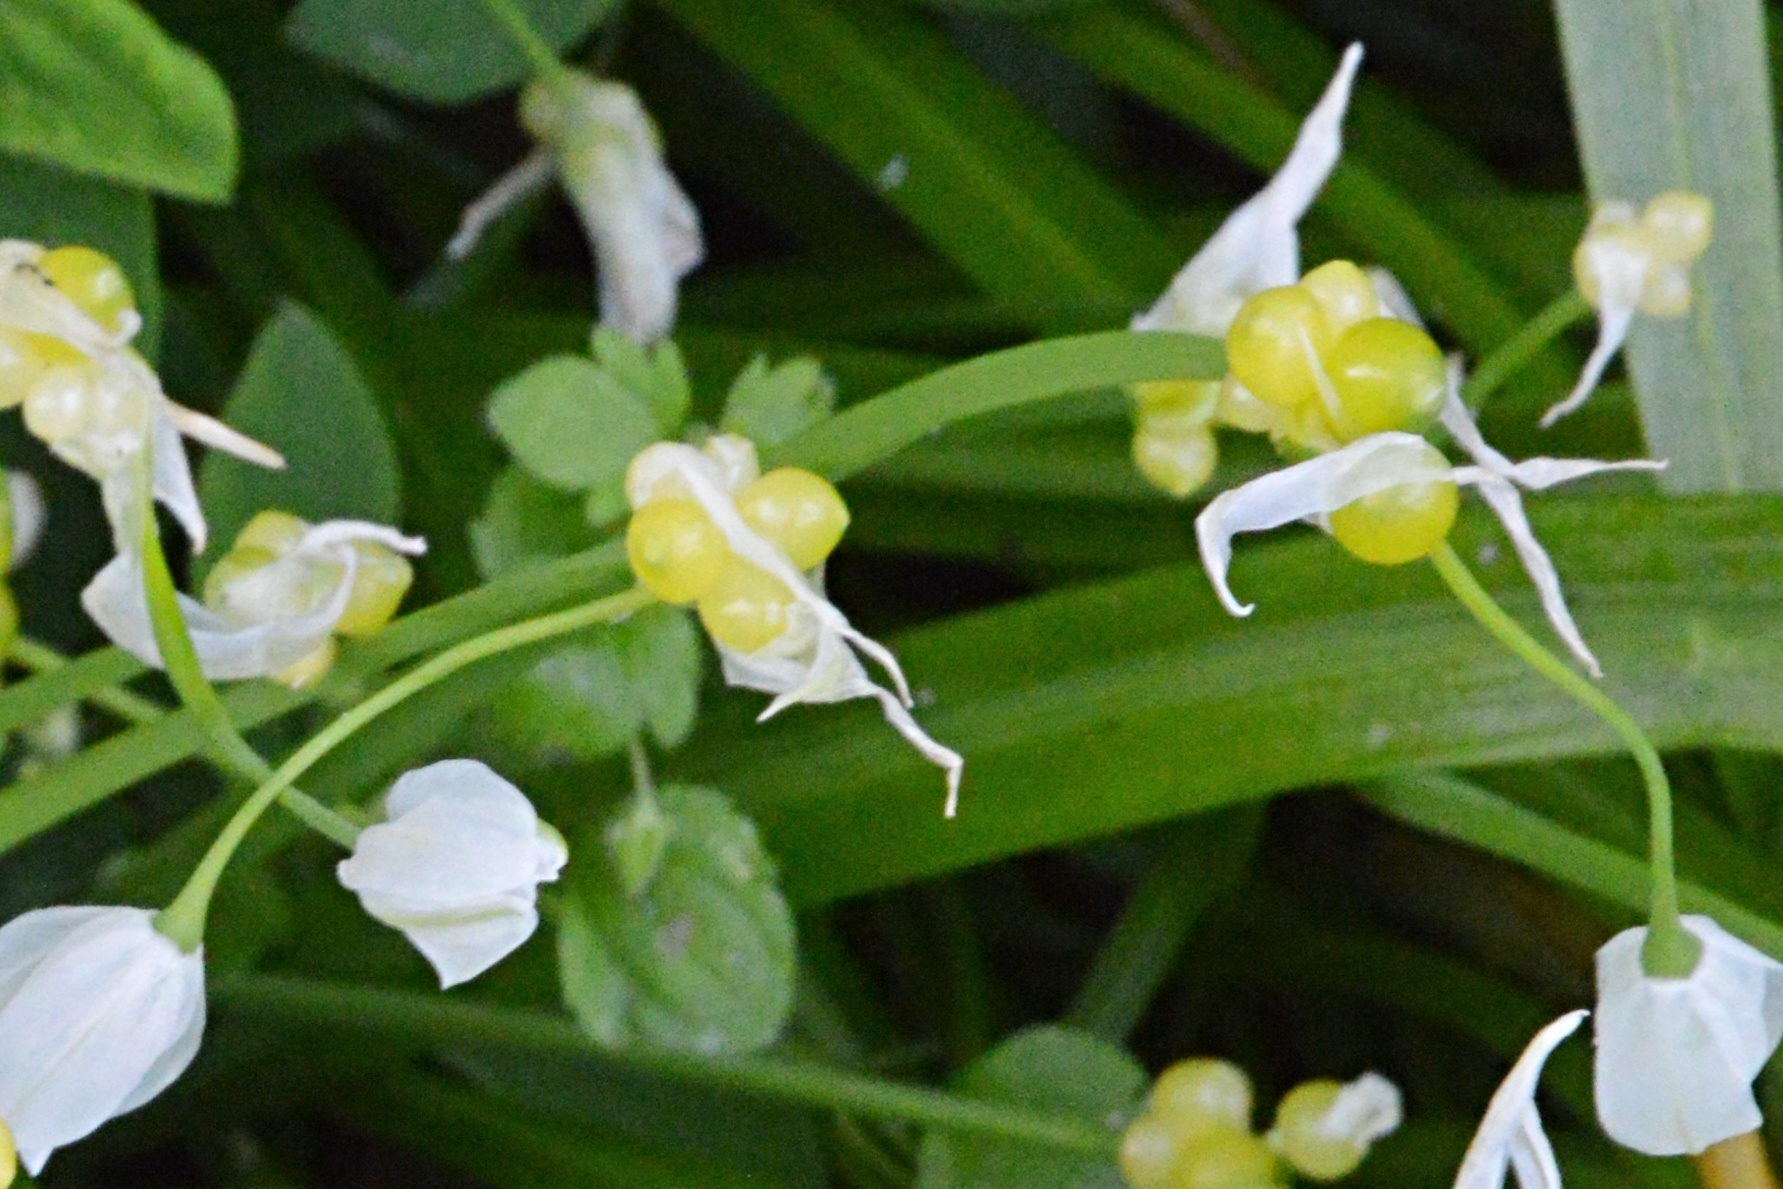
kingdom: Plantae
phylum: Tracheophyta
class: Liliopsida
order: Asparagales
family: Amaryllidaceae
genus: Allium
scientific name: Allium paradoxum
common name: Few-flowered garlic
